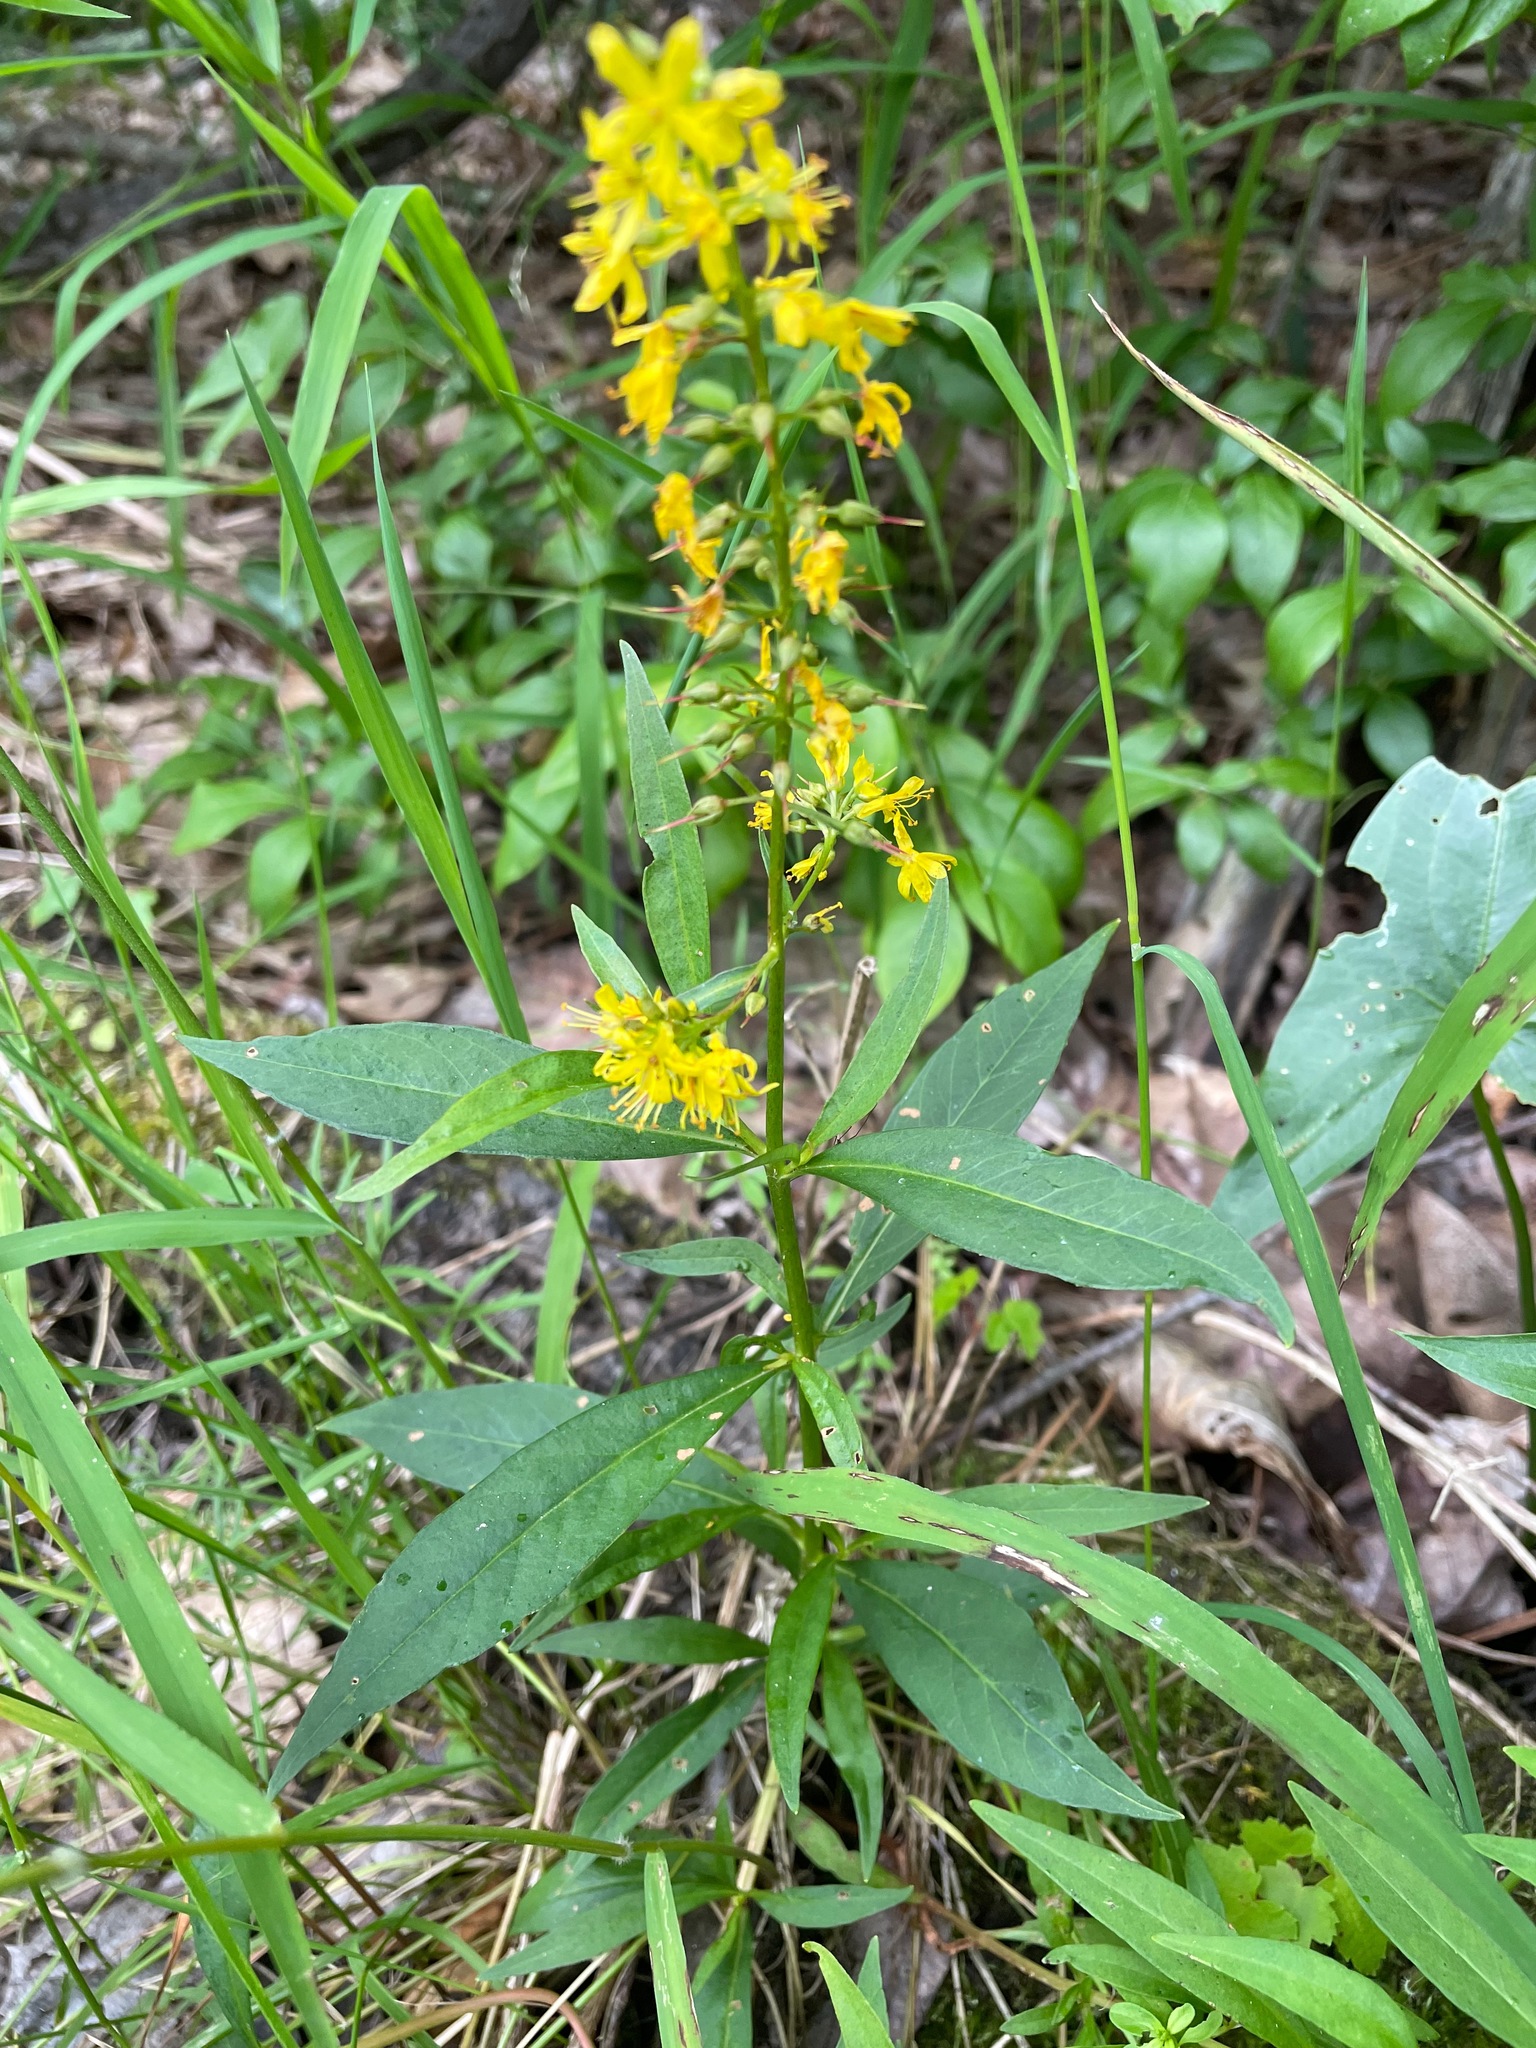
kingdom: Plantae
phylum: Tracheophyta
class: Magnoliopsida
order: Ericales
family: Primulaceae
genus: Lysimachia
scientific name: Lysimachia terrestris
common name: Lake loosestrife
